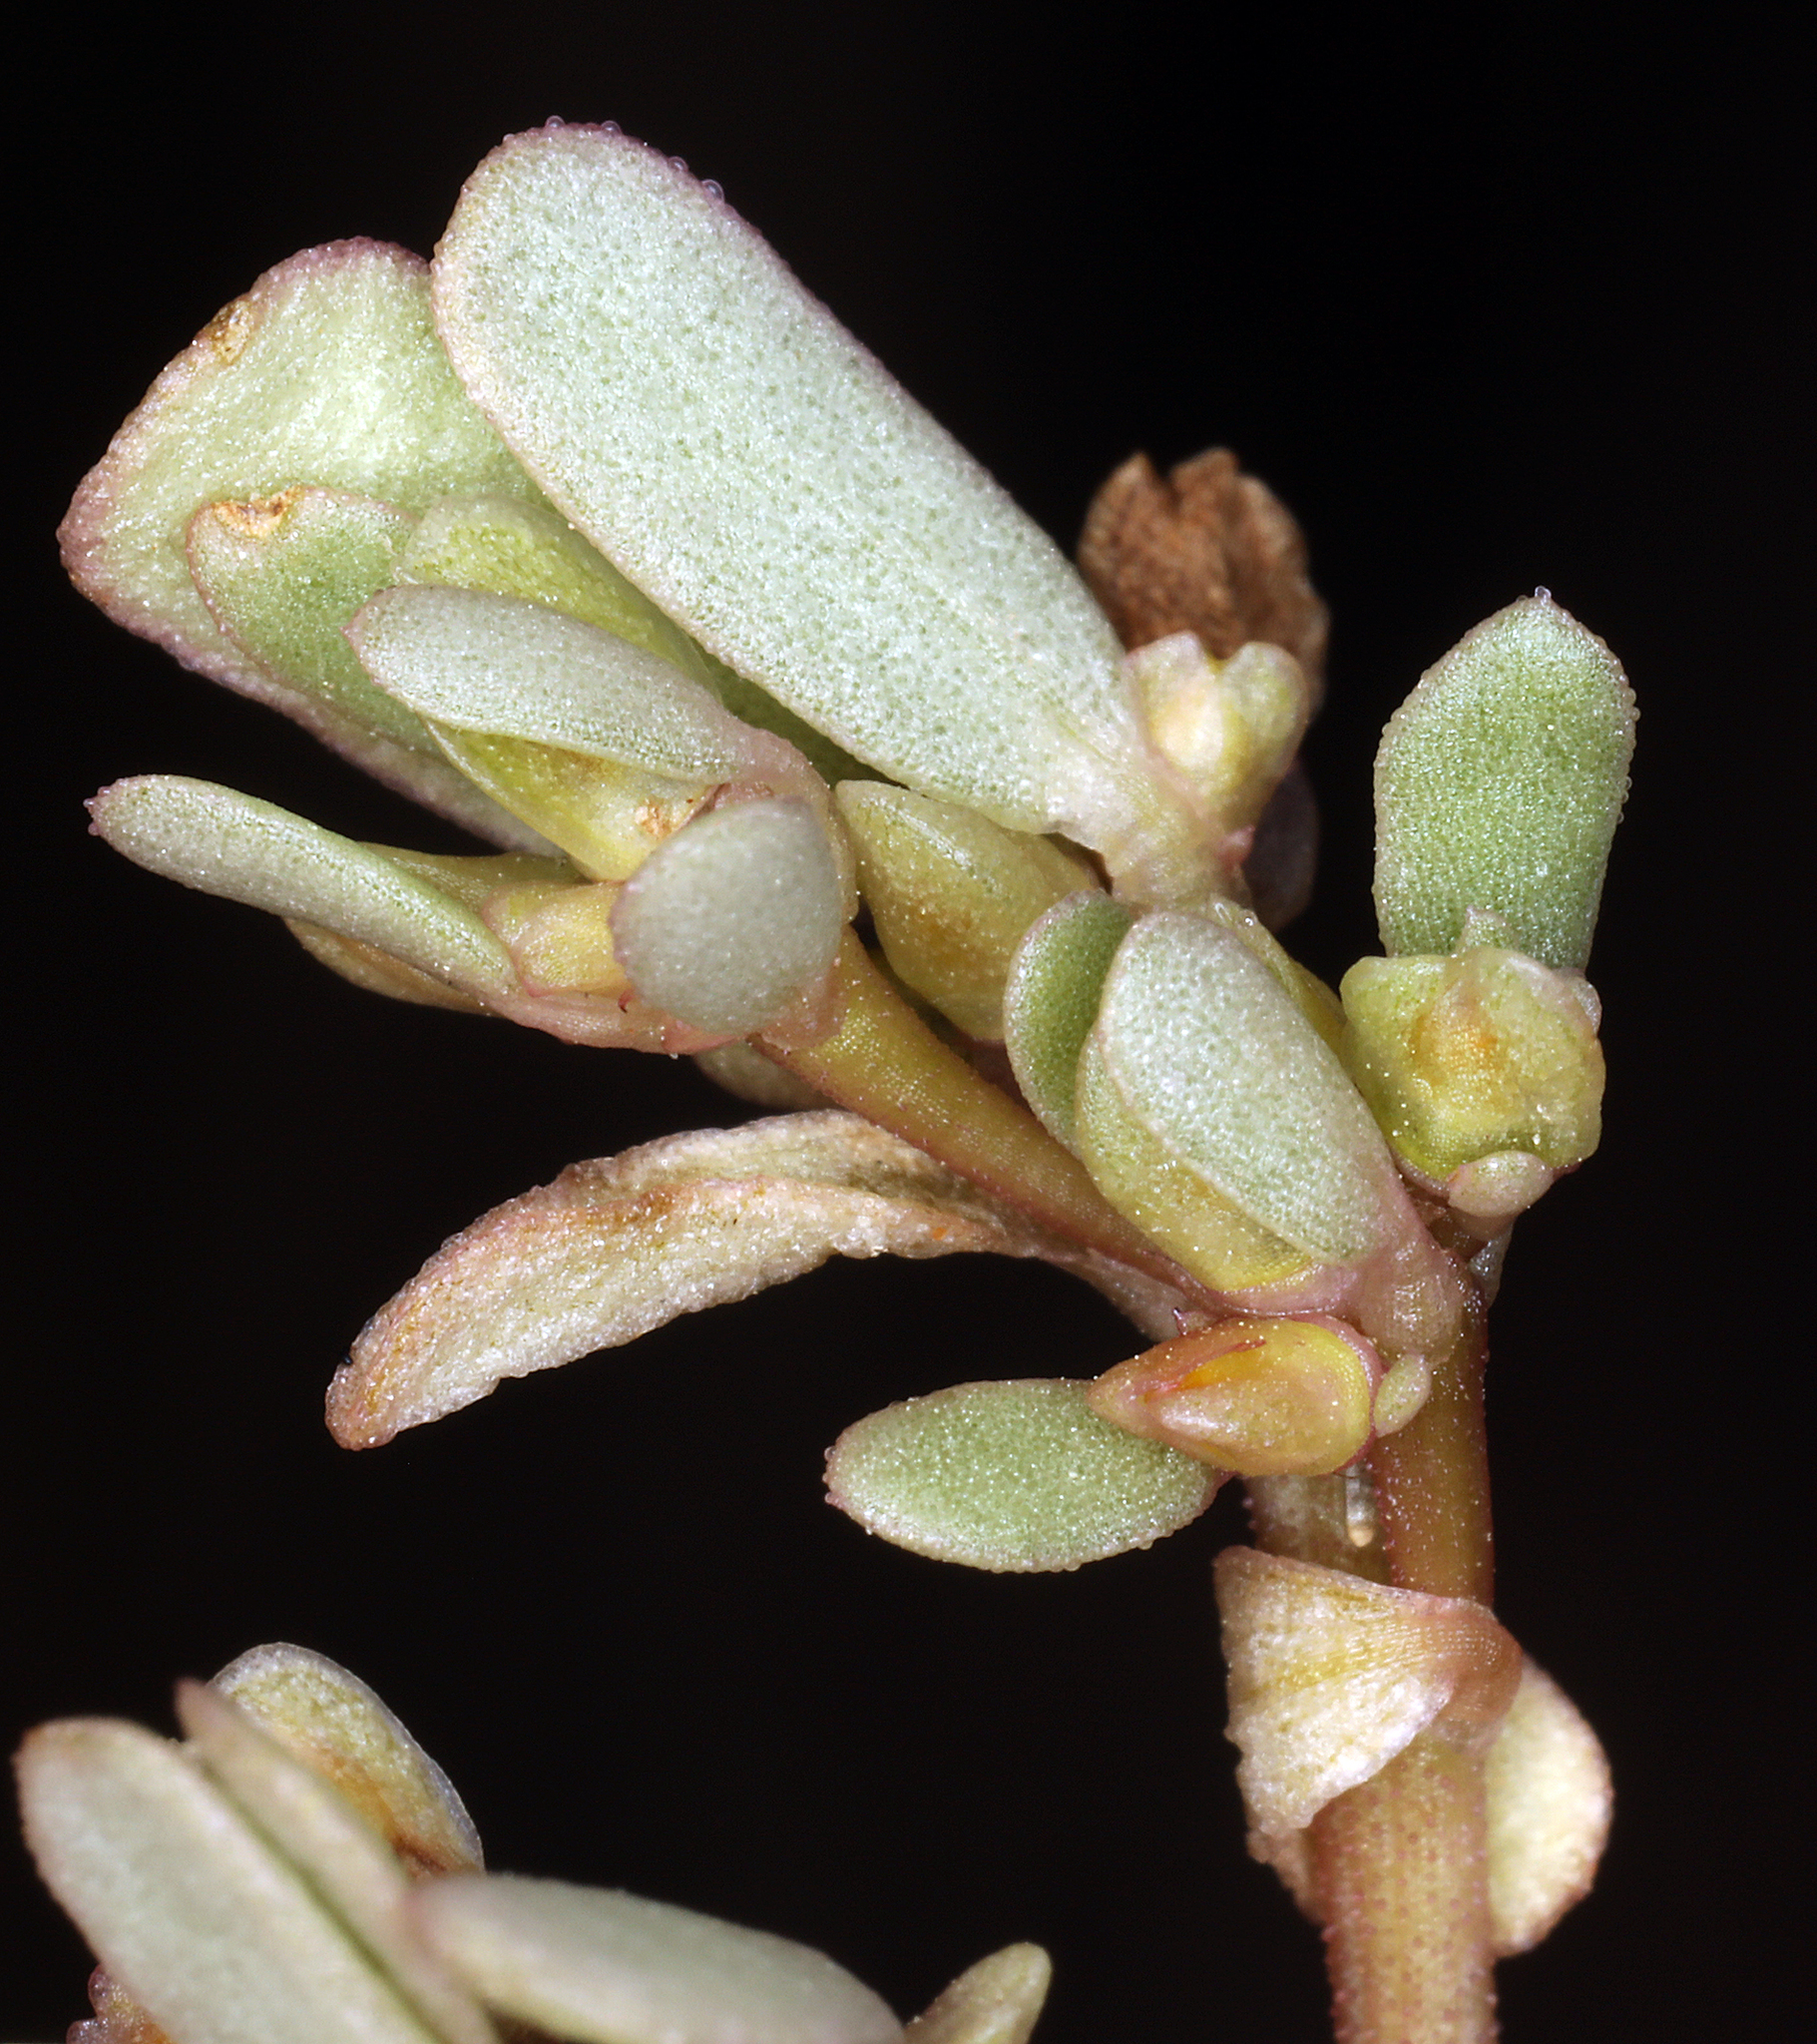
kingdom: Plantae
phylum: Tracheophyta
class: Magnoliopsida
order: Caryophyllales
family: Portulacaceae
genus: Portulaca
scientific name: Portulaca impolita
